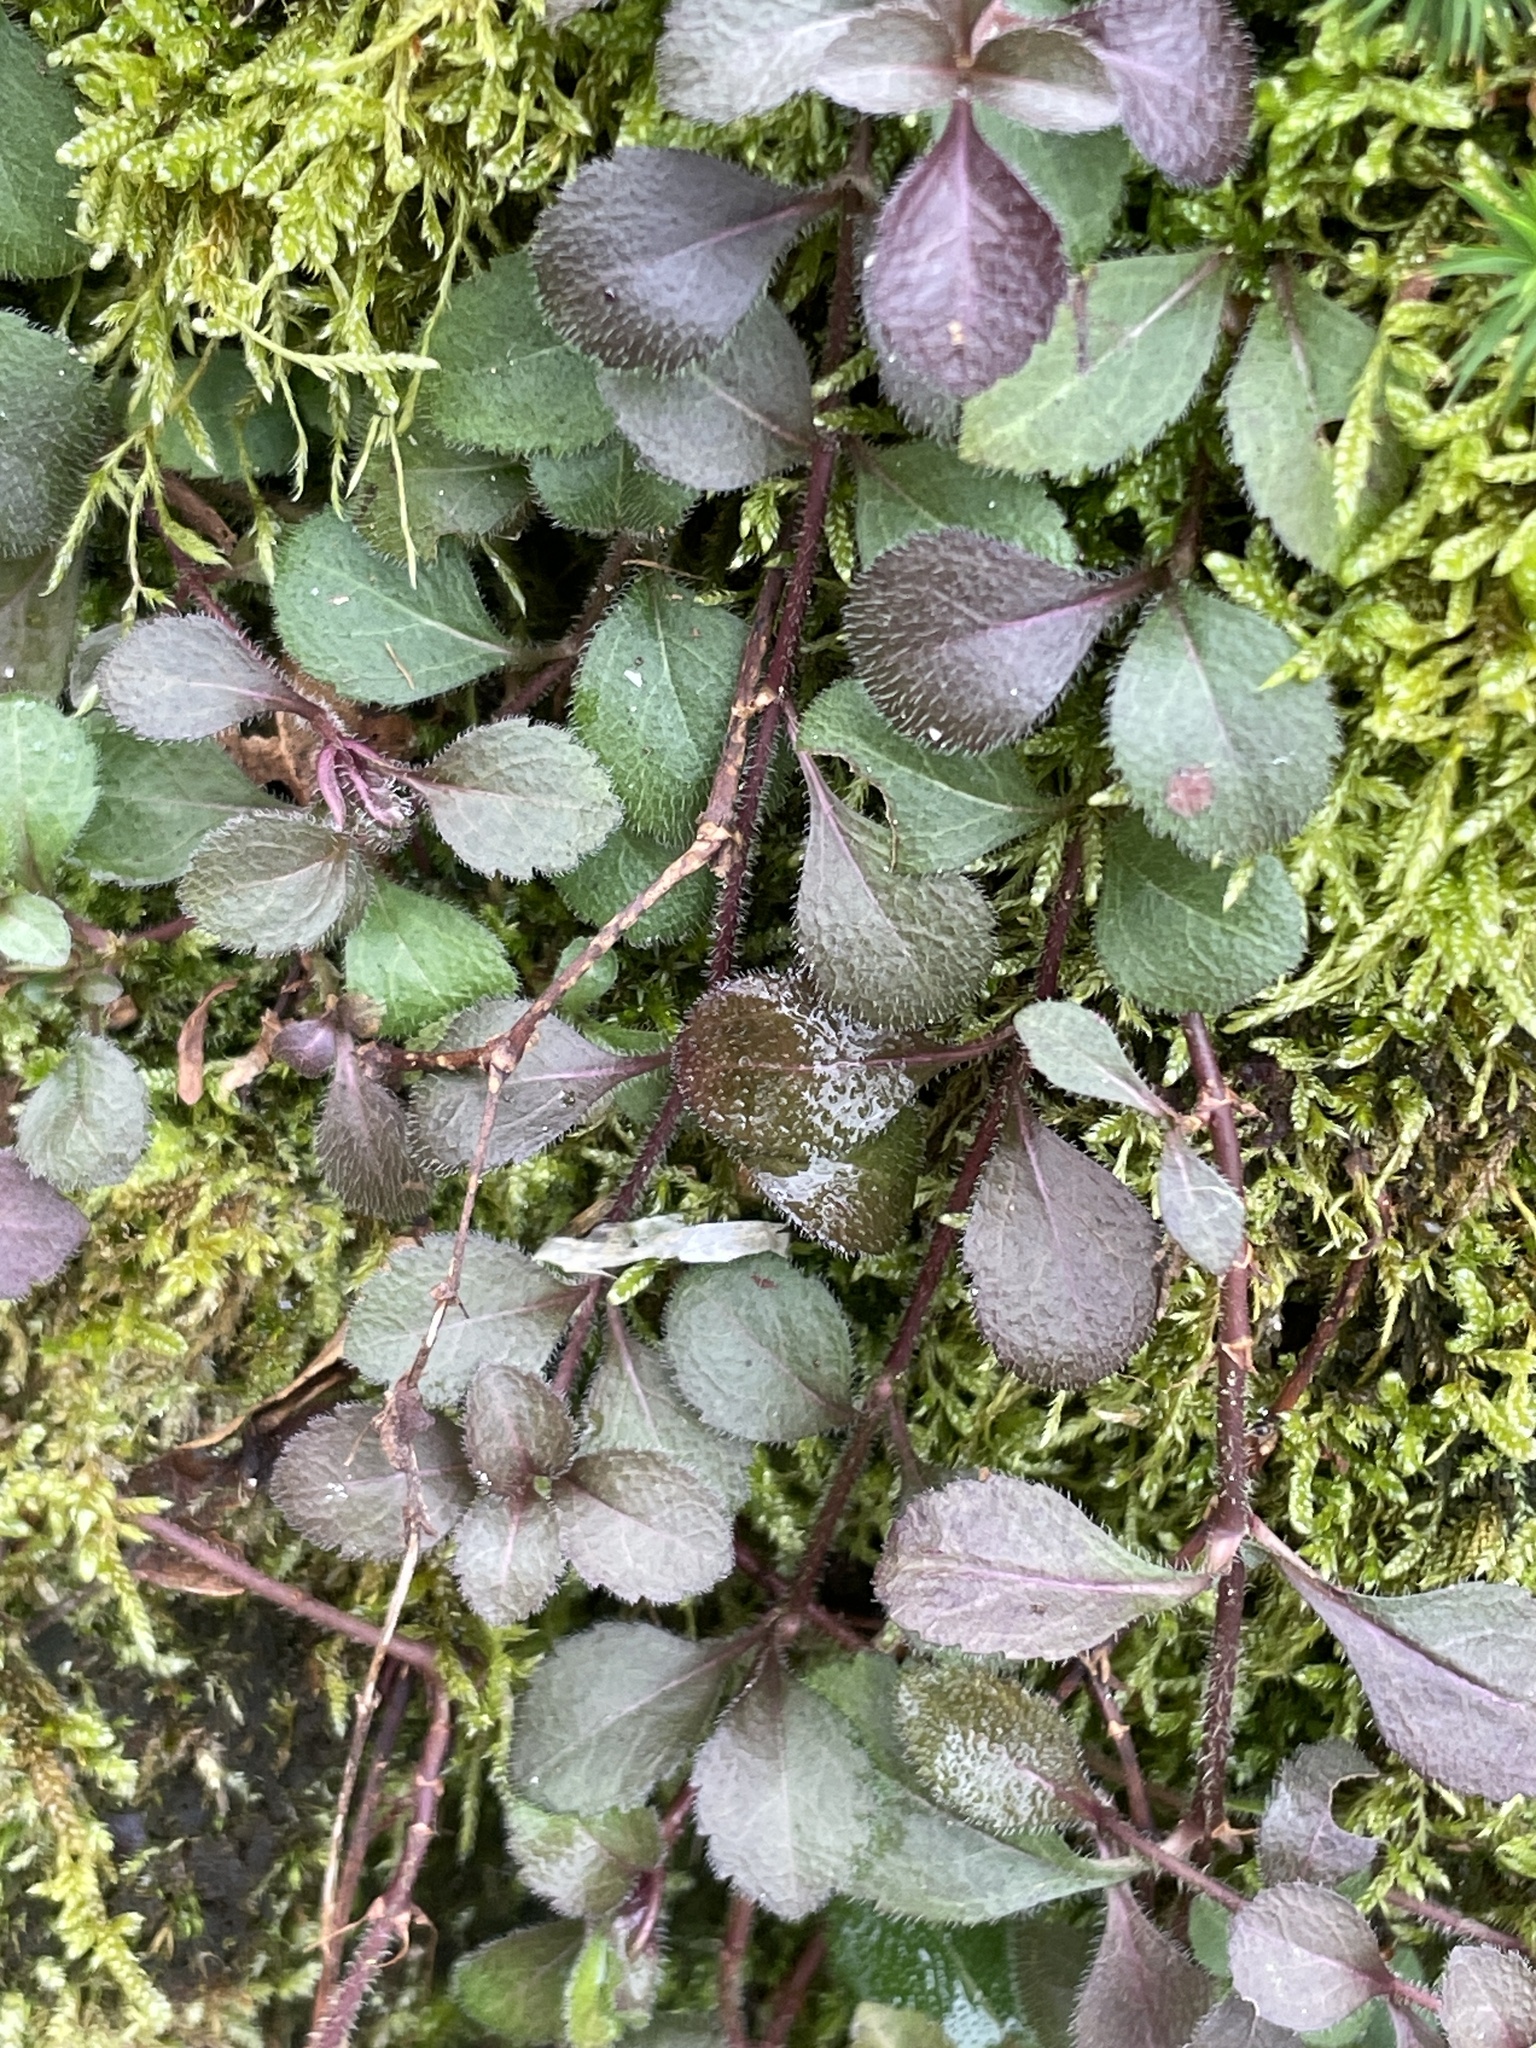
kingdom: Plantae
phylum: Tracheophyta
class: Magnoliopsida
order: Lamiales
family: Plantaginaceae
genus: Veronica
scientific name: Veronica officinalis
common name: Common speedwell
